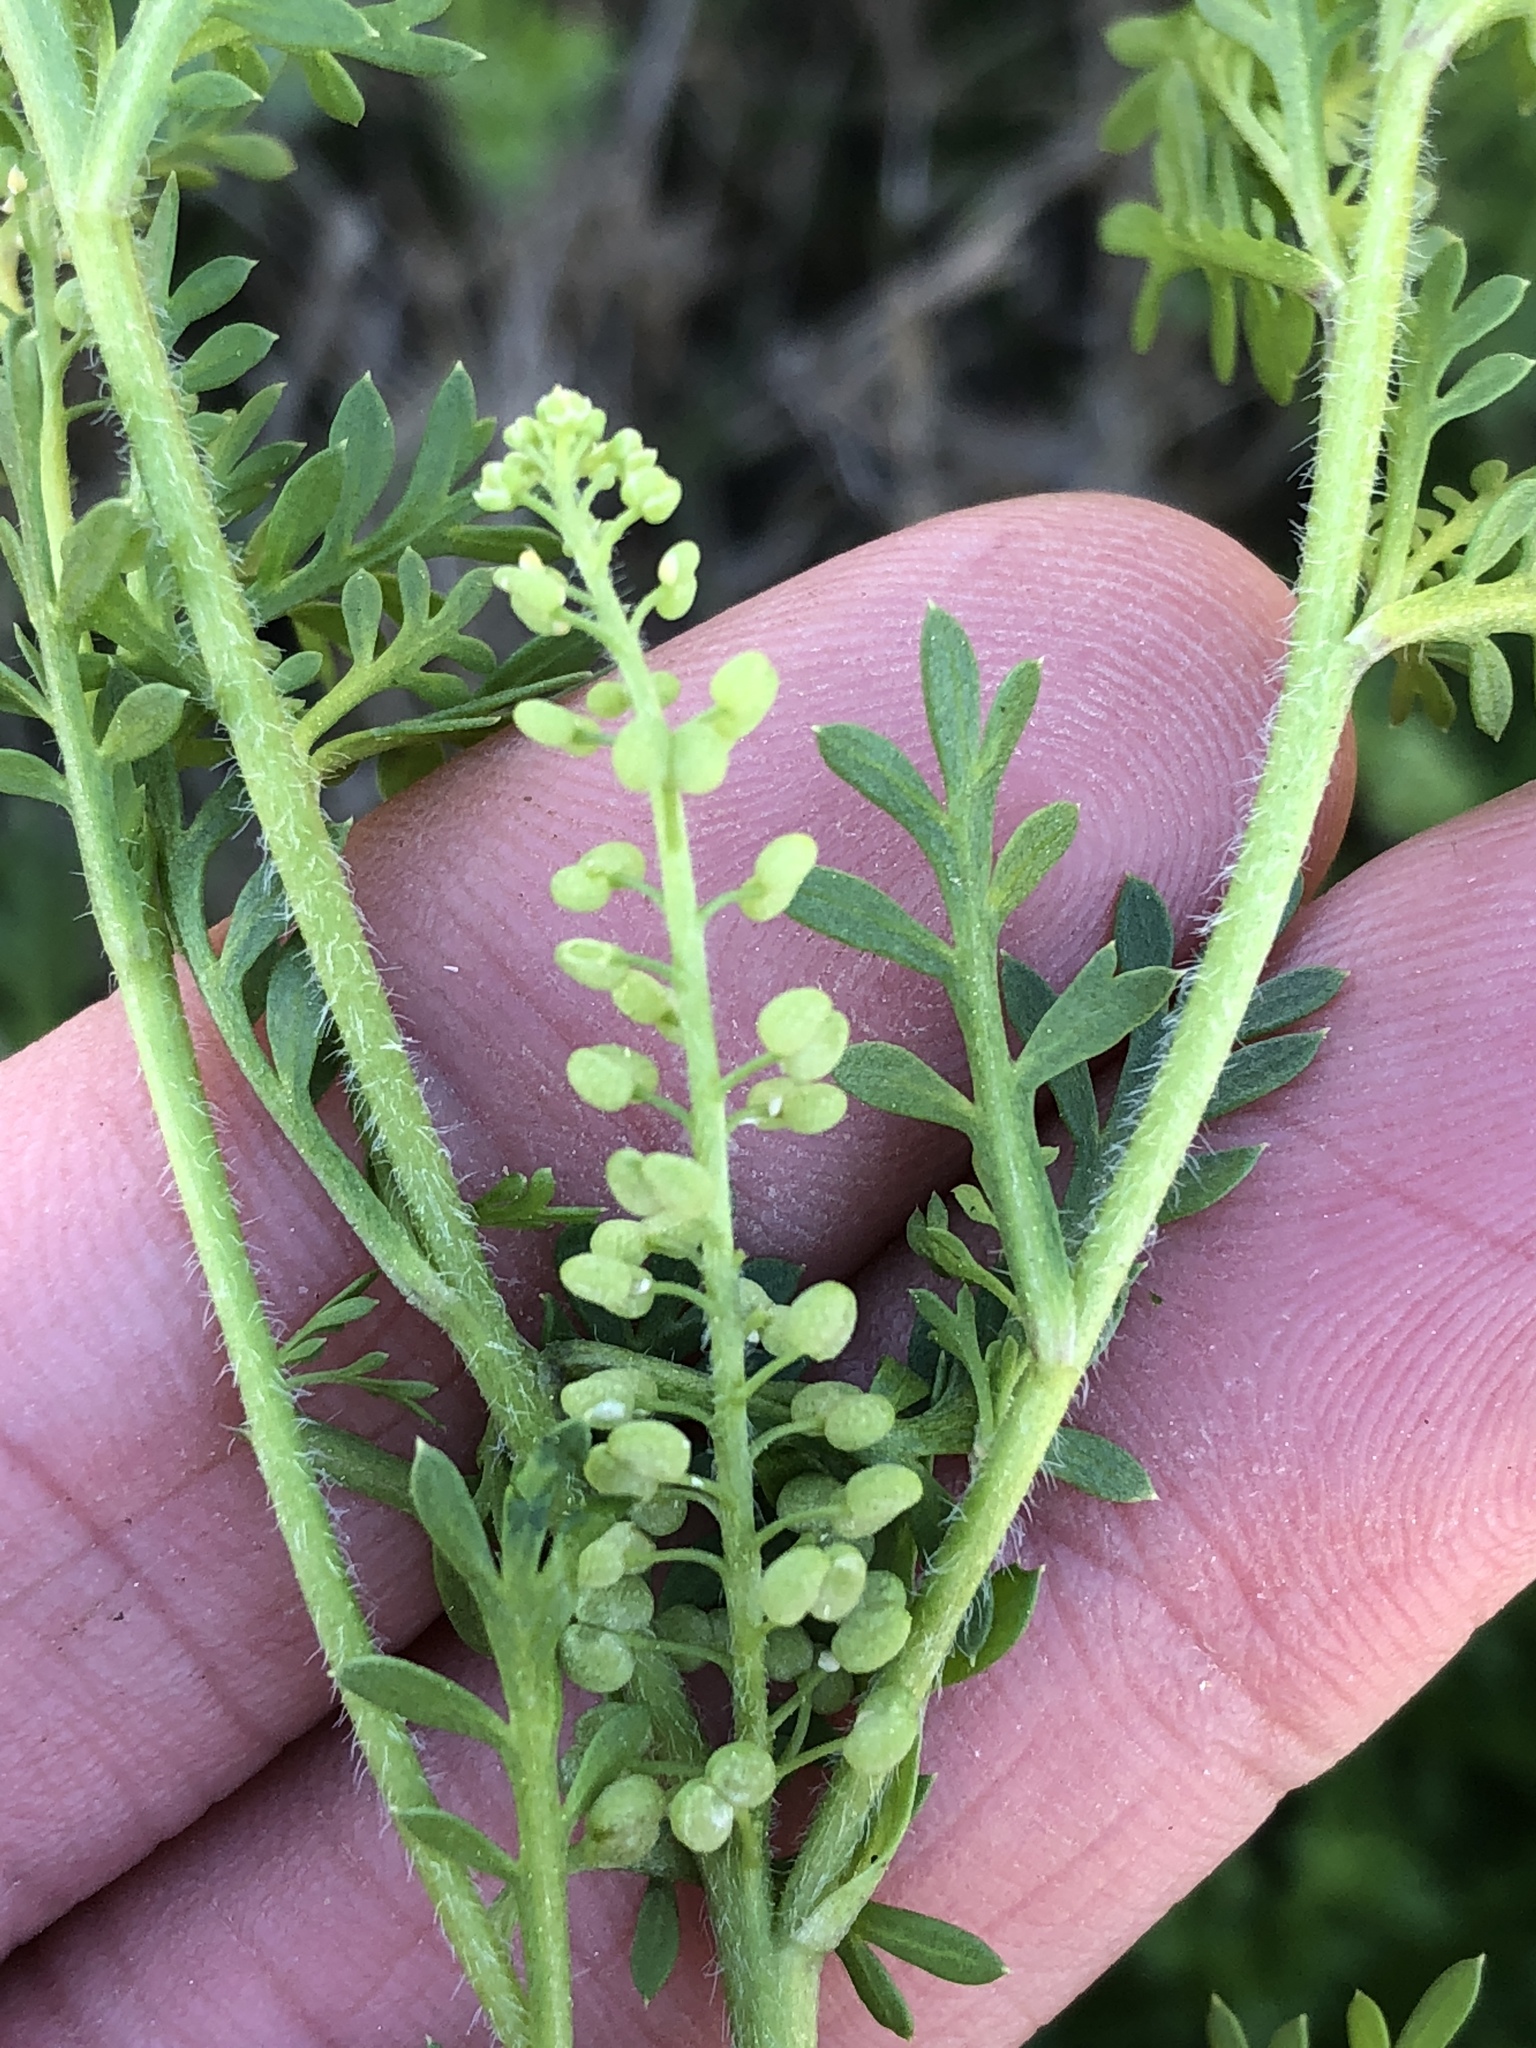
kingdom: Plantae
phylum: Tracheophyta
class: Magnoliopsida
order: Brassicales
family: Brassicaceae
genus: Lepidium
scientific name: Lepidium didymum
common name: Lesser swinecress
